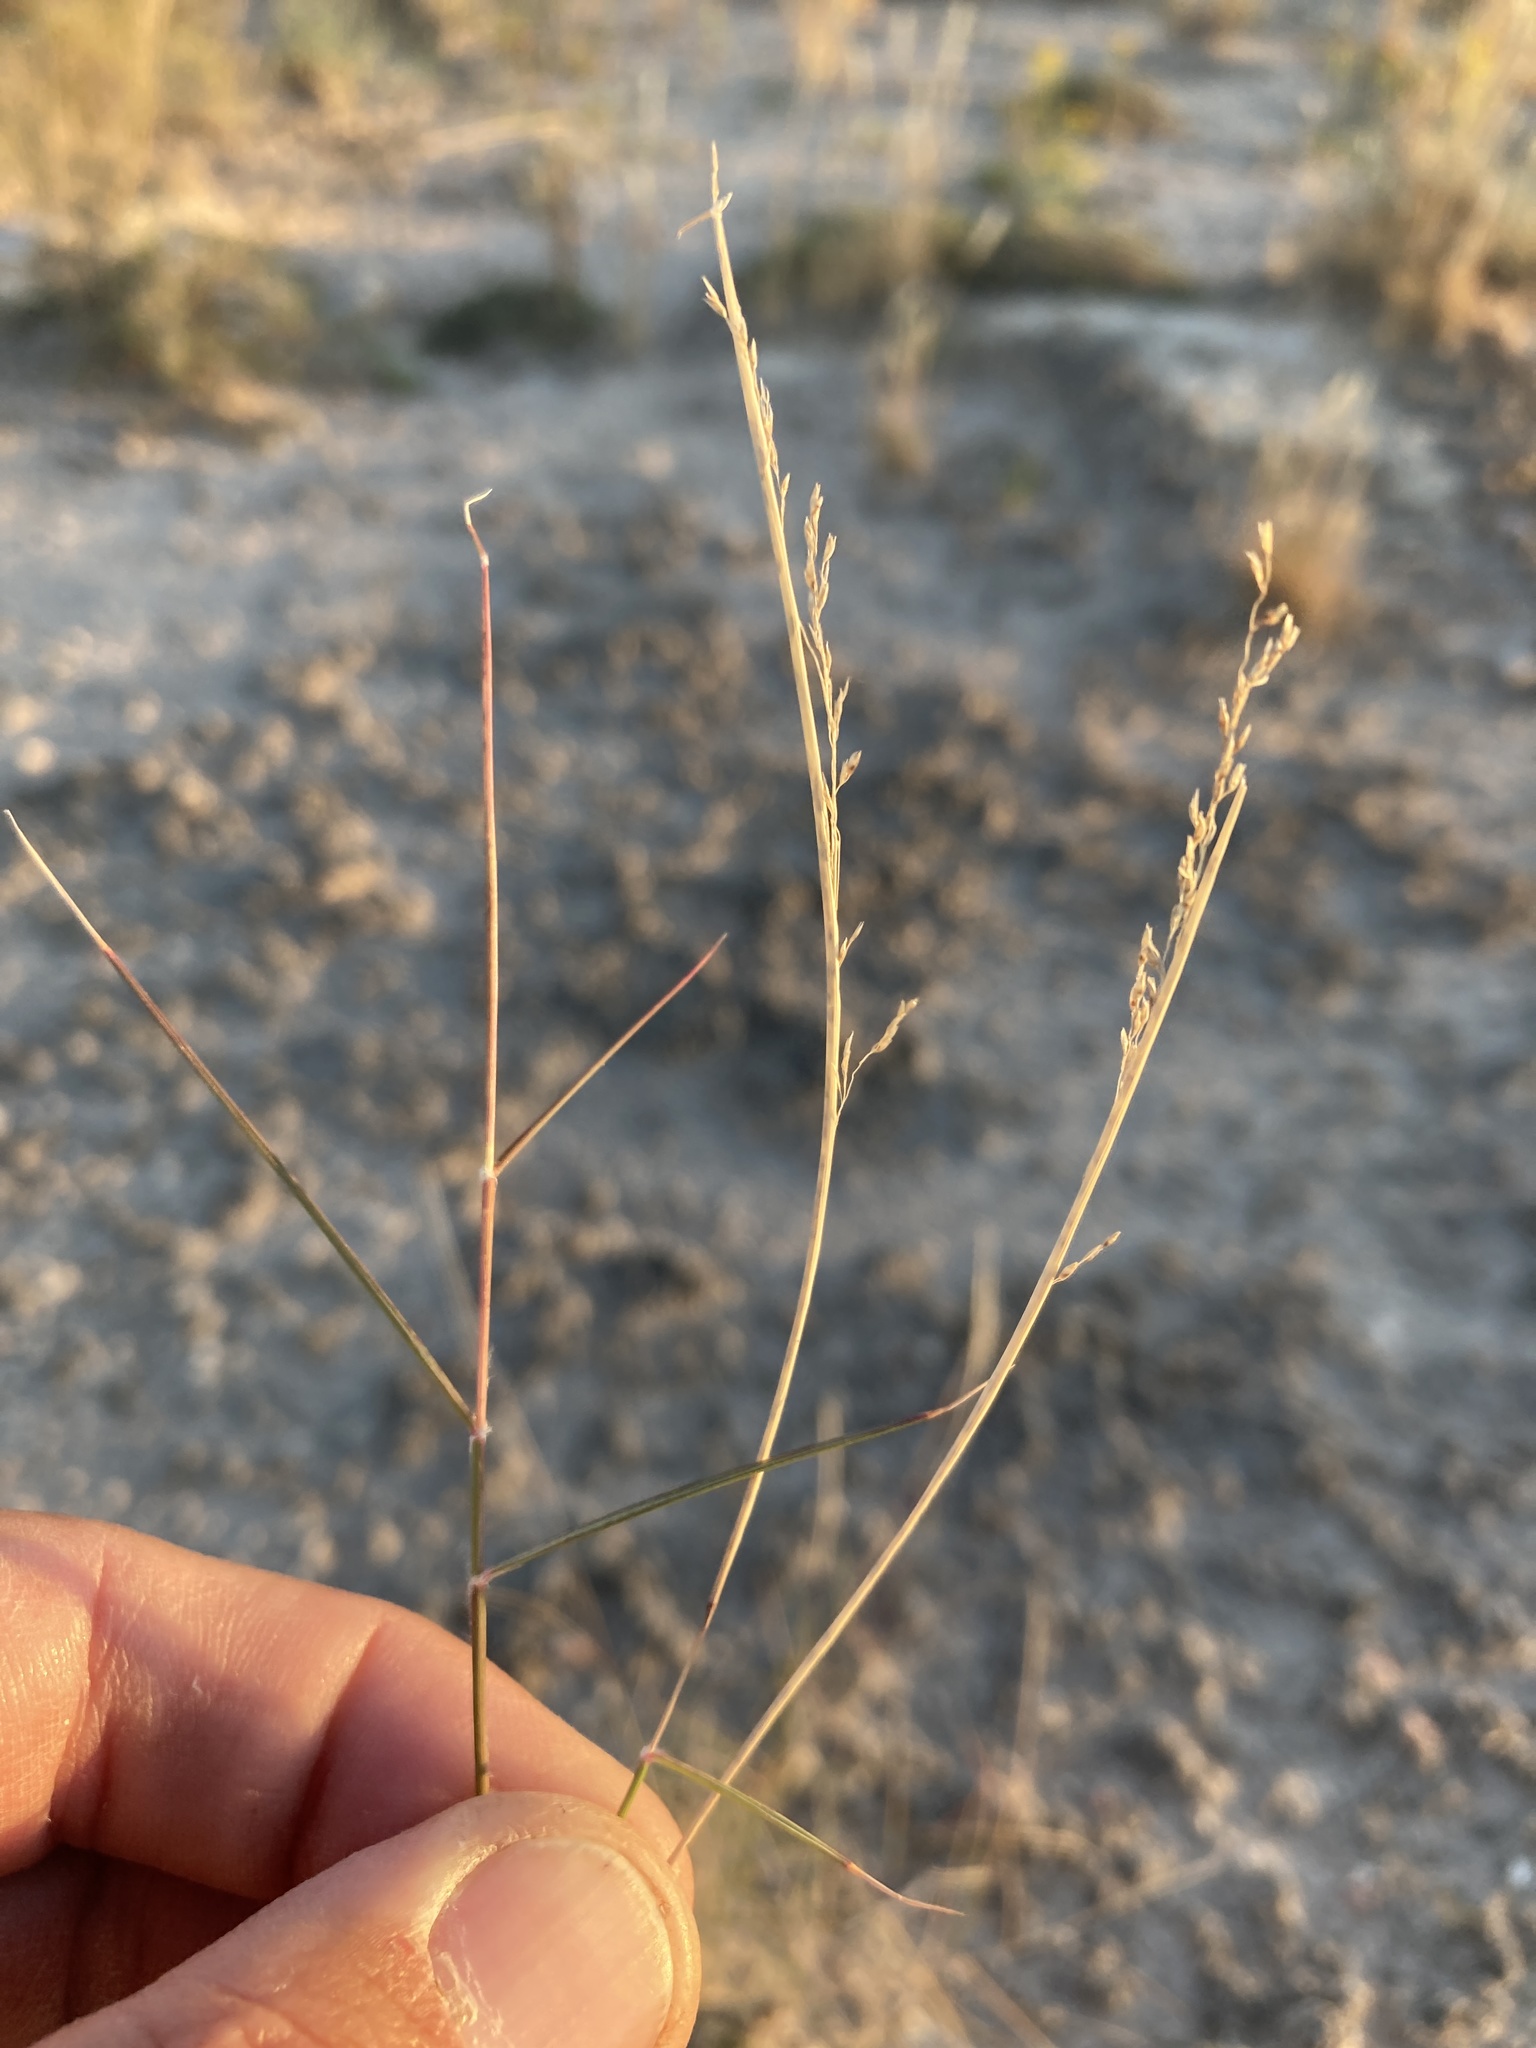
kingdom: Plantae
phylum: Tracheophyta
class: Liliopsida
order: Poales
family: Poaceae
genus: Sporobolus
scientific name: Sporobolus nealleyi
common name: Gyp grass
